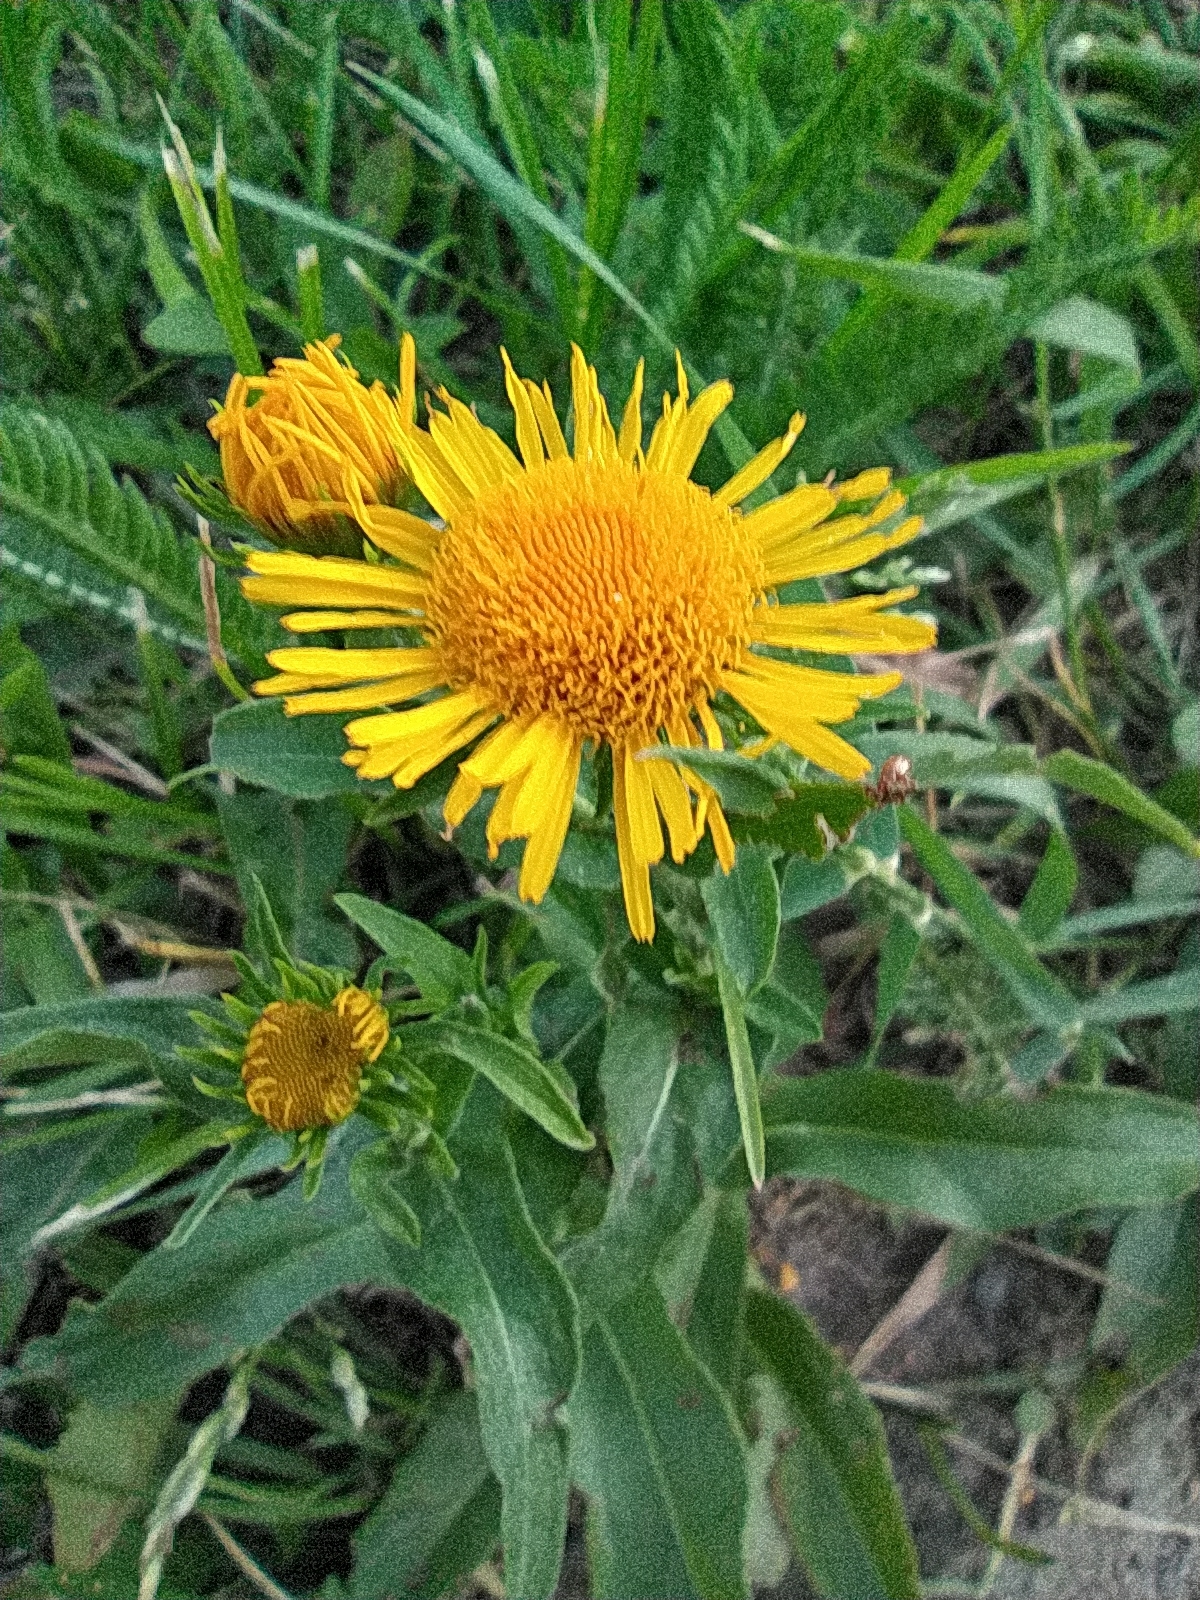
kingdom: Plantae
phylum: Tracheophyta
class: Magnoliopsida
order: Asterales
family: Asteraceae
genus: Pentanema
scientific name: Pentanema britannicum
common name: British elecampane
